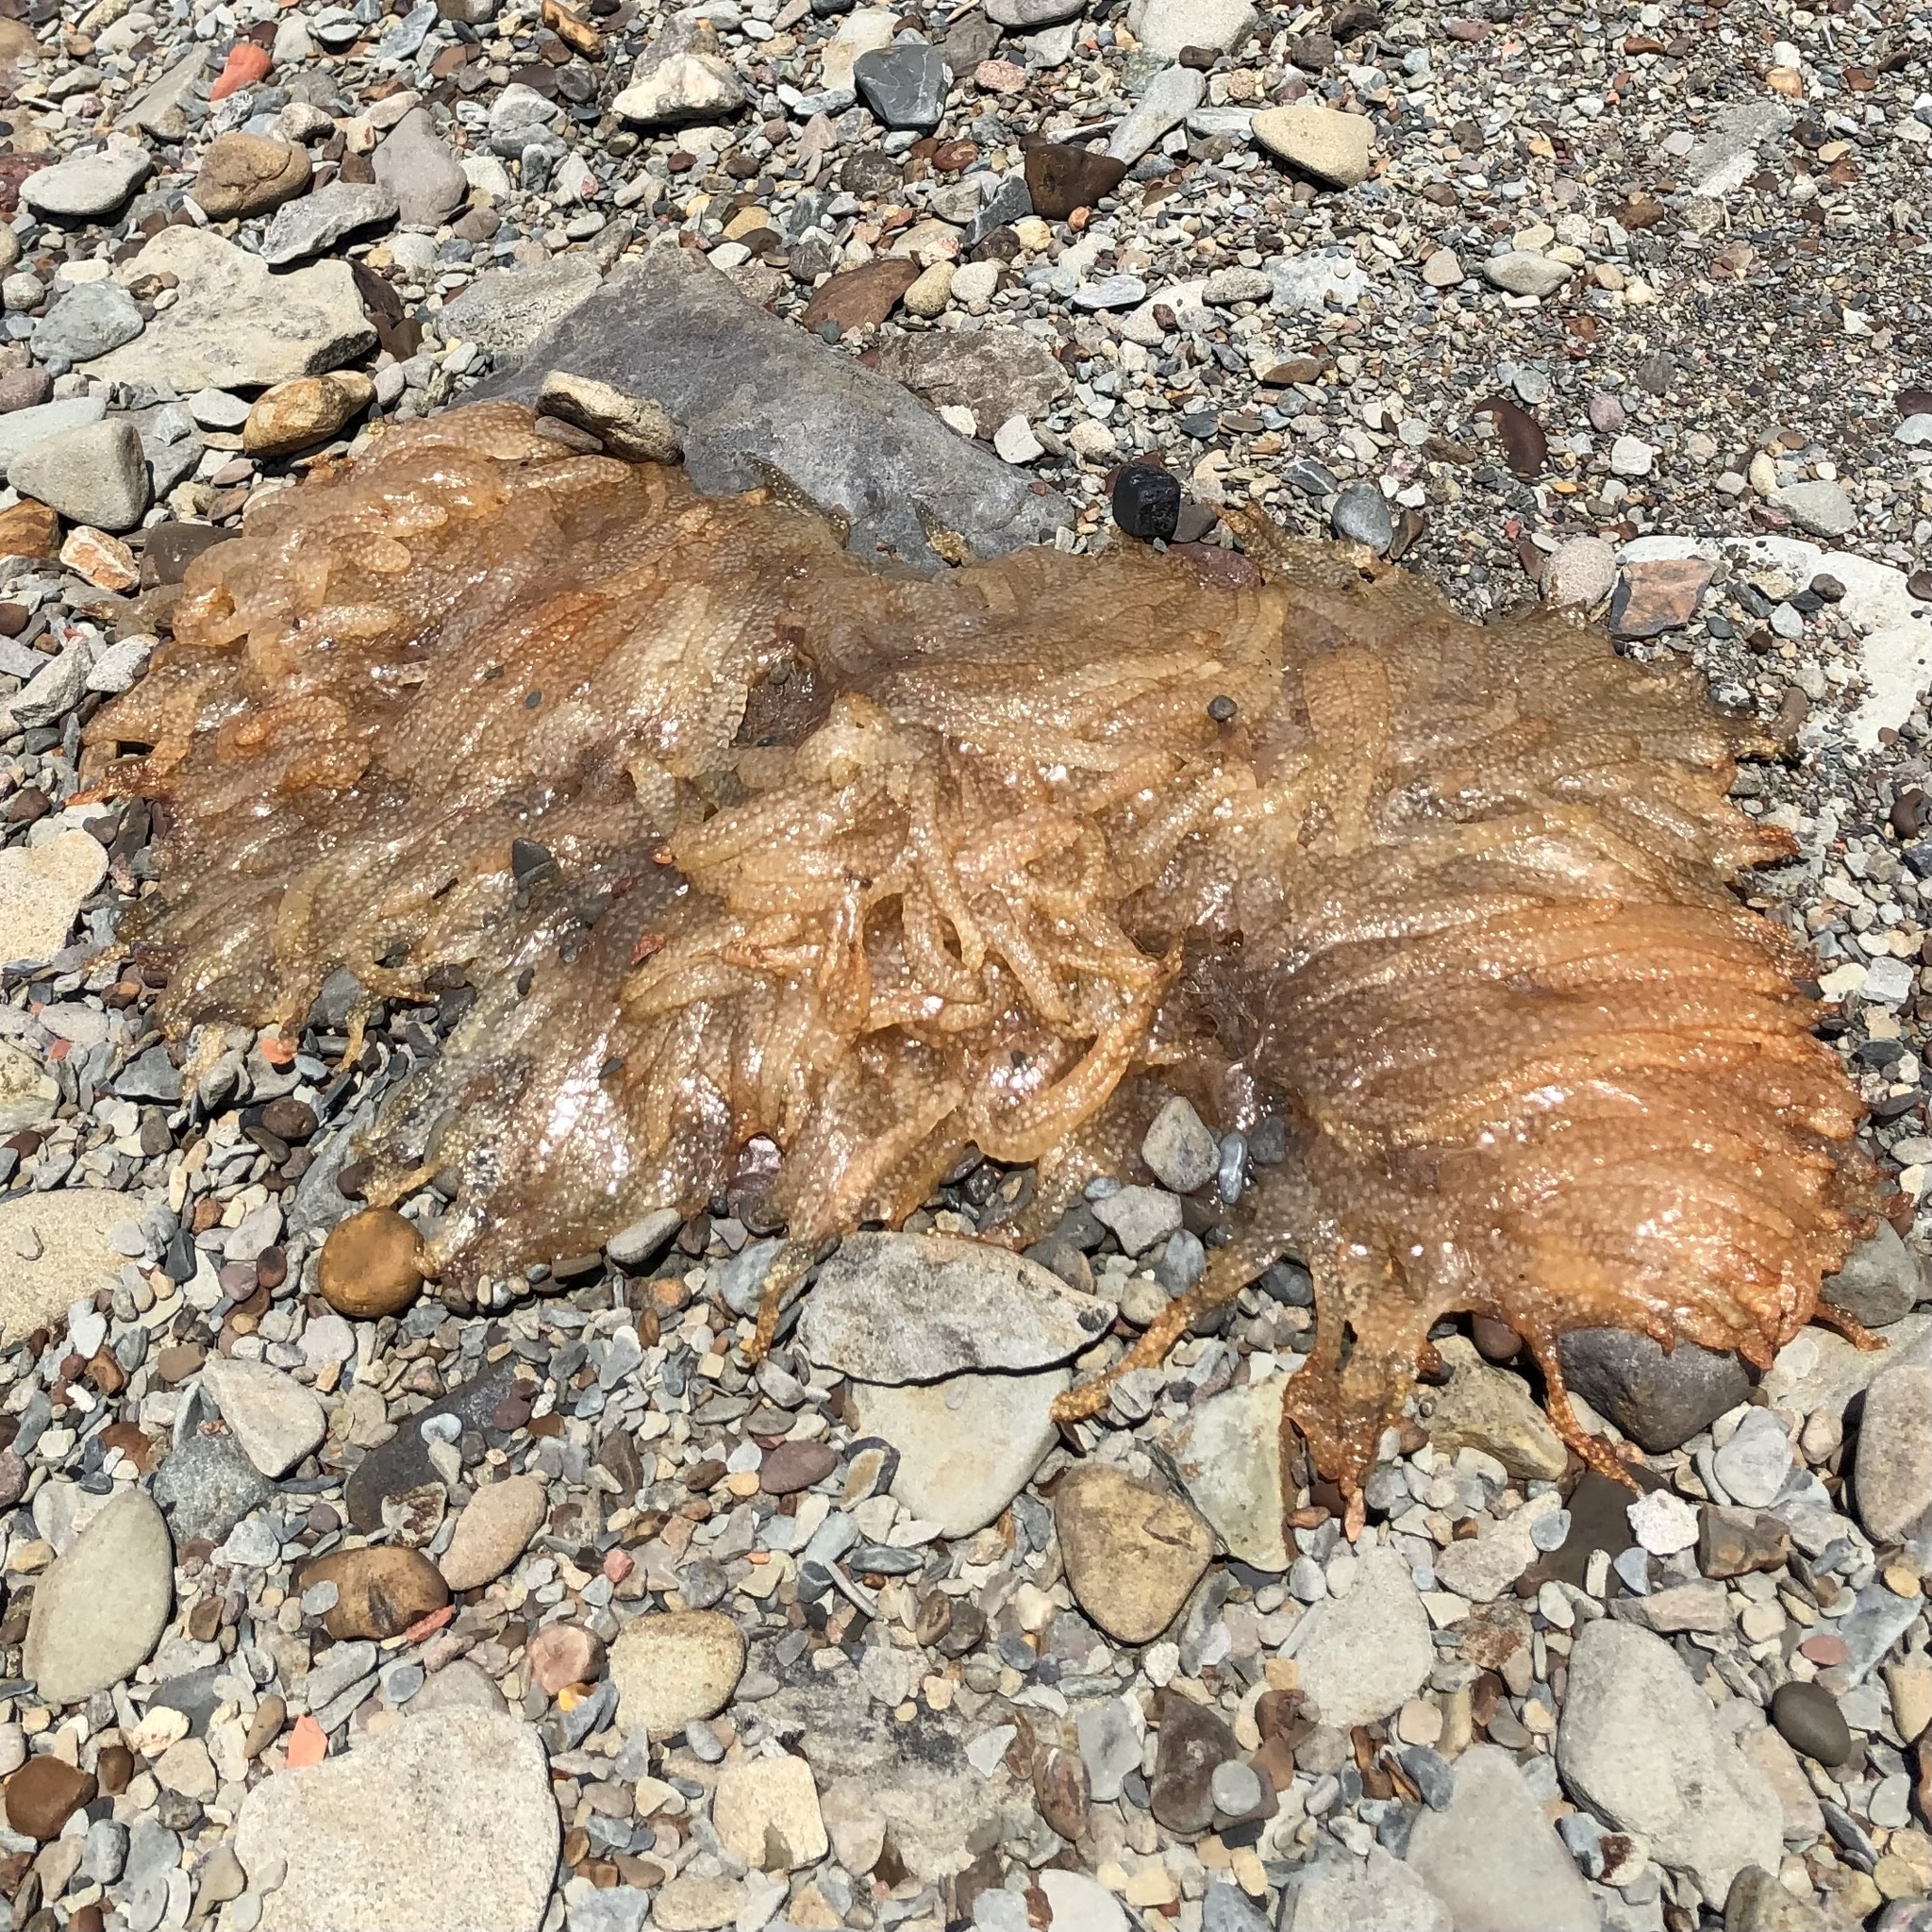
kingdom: Animalia
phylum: Mollusca
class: Cephalopoda
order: Myopsida
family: Loliginidae
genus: Doryteuthis
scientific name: Doryteuthis pealeii
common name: Long-finned inshore squid
